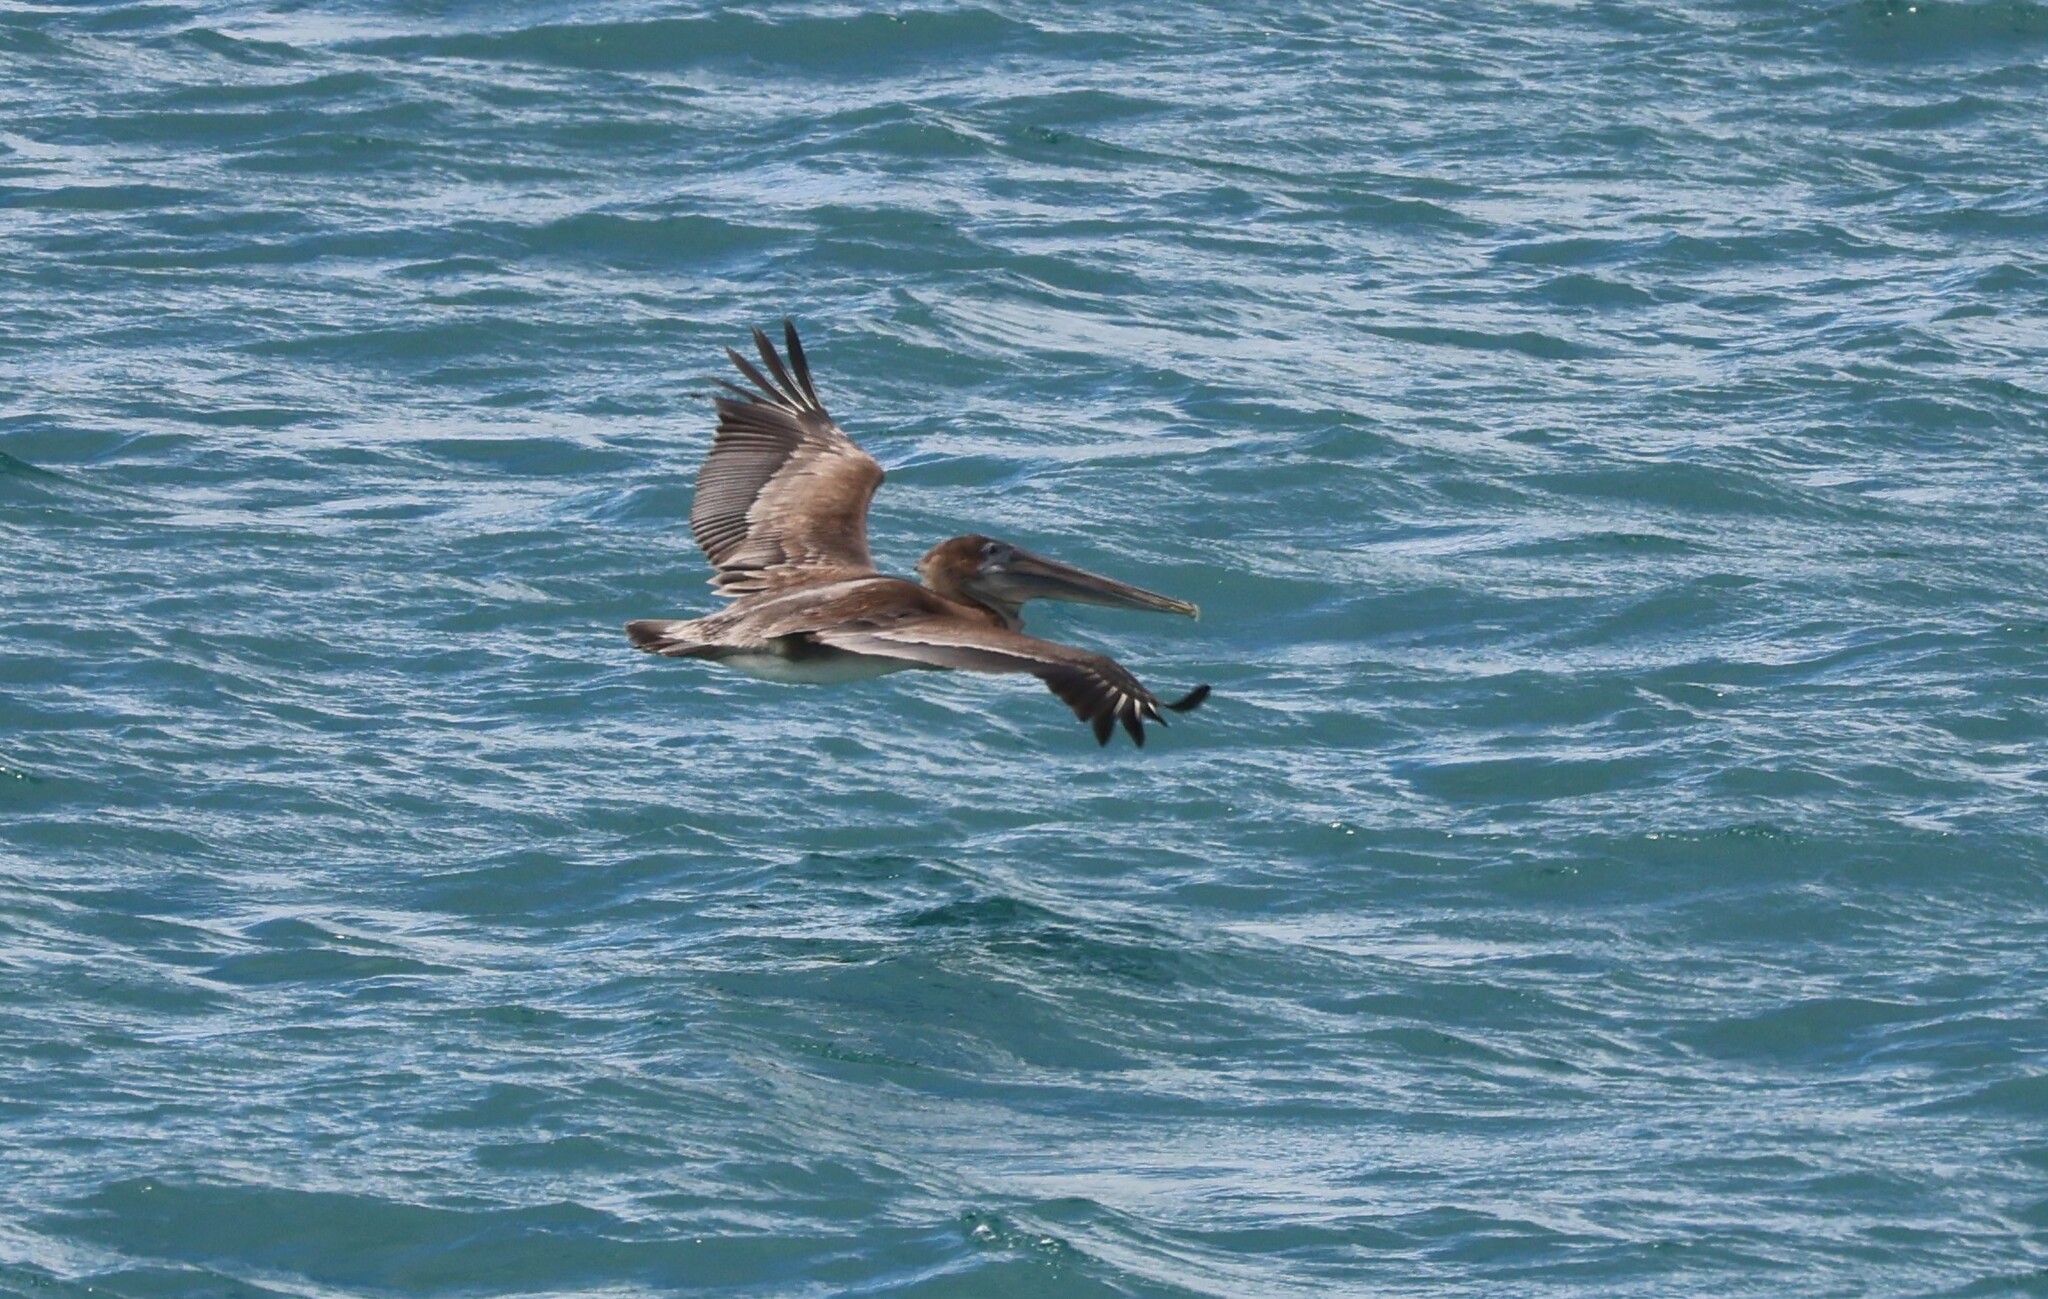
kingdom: Animalia
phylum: Chordata
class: Aves
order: Pelecaniformes
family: Pelecanidae
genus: Pelecanus
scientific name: Pelecanus occidentalis
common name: Brown pelican
